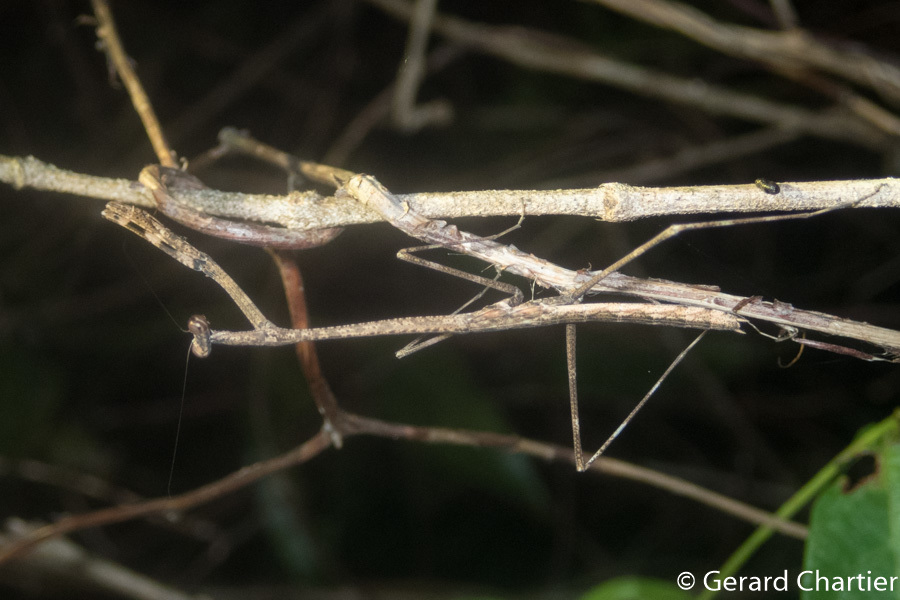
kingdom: Animalia
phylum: Arthropoda
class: Insecta
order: Mantodea
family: Deroplatyidae
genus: Euchomenella
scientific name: Euchomenella macrops
